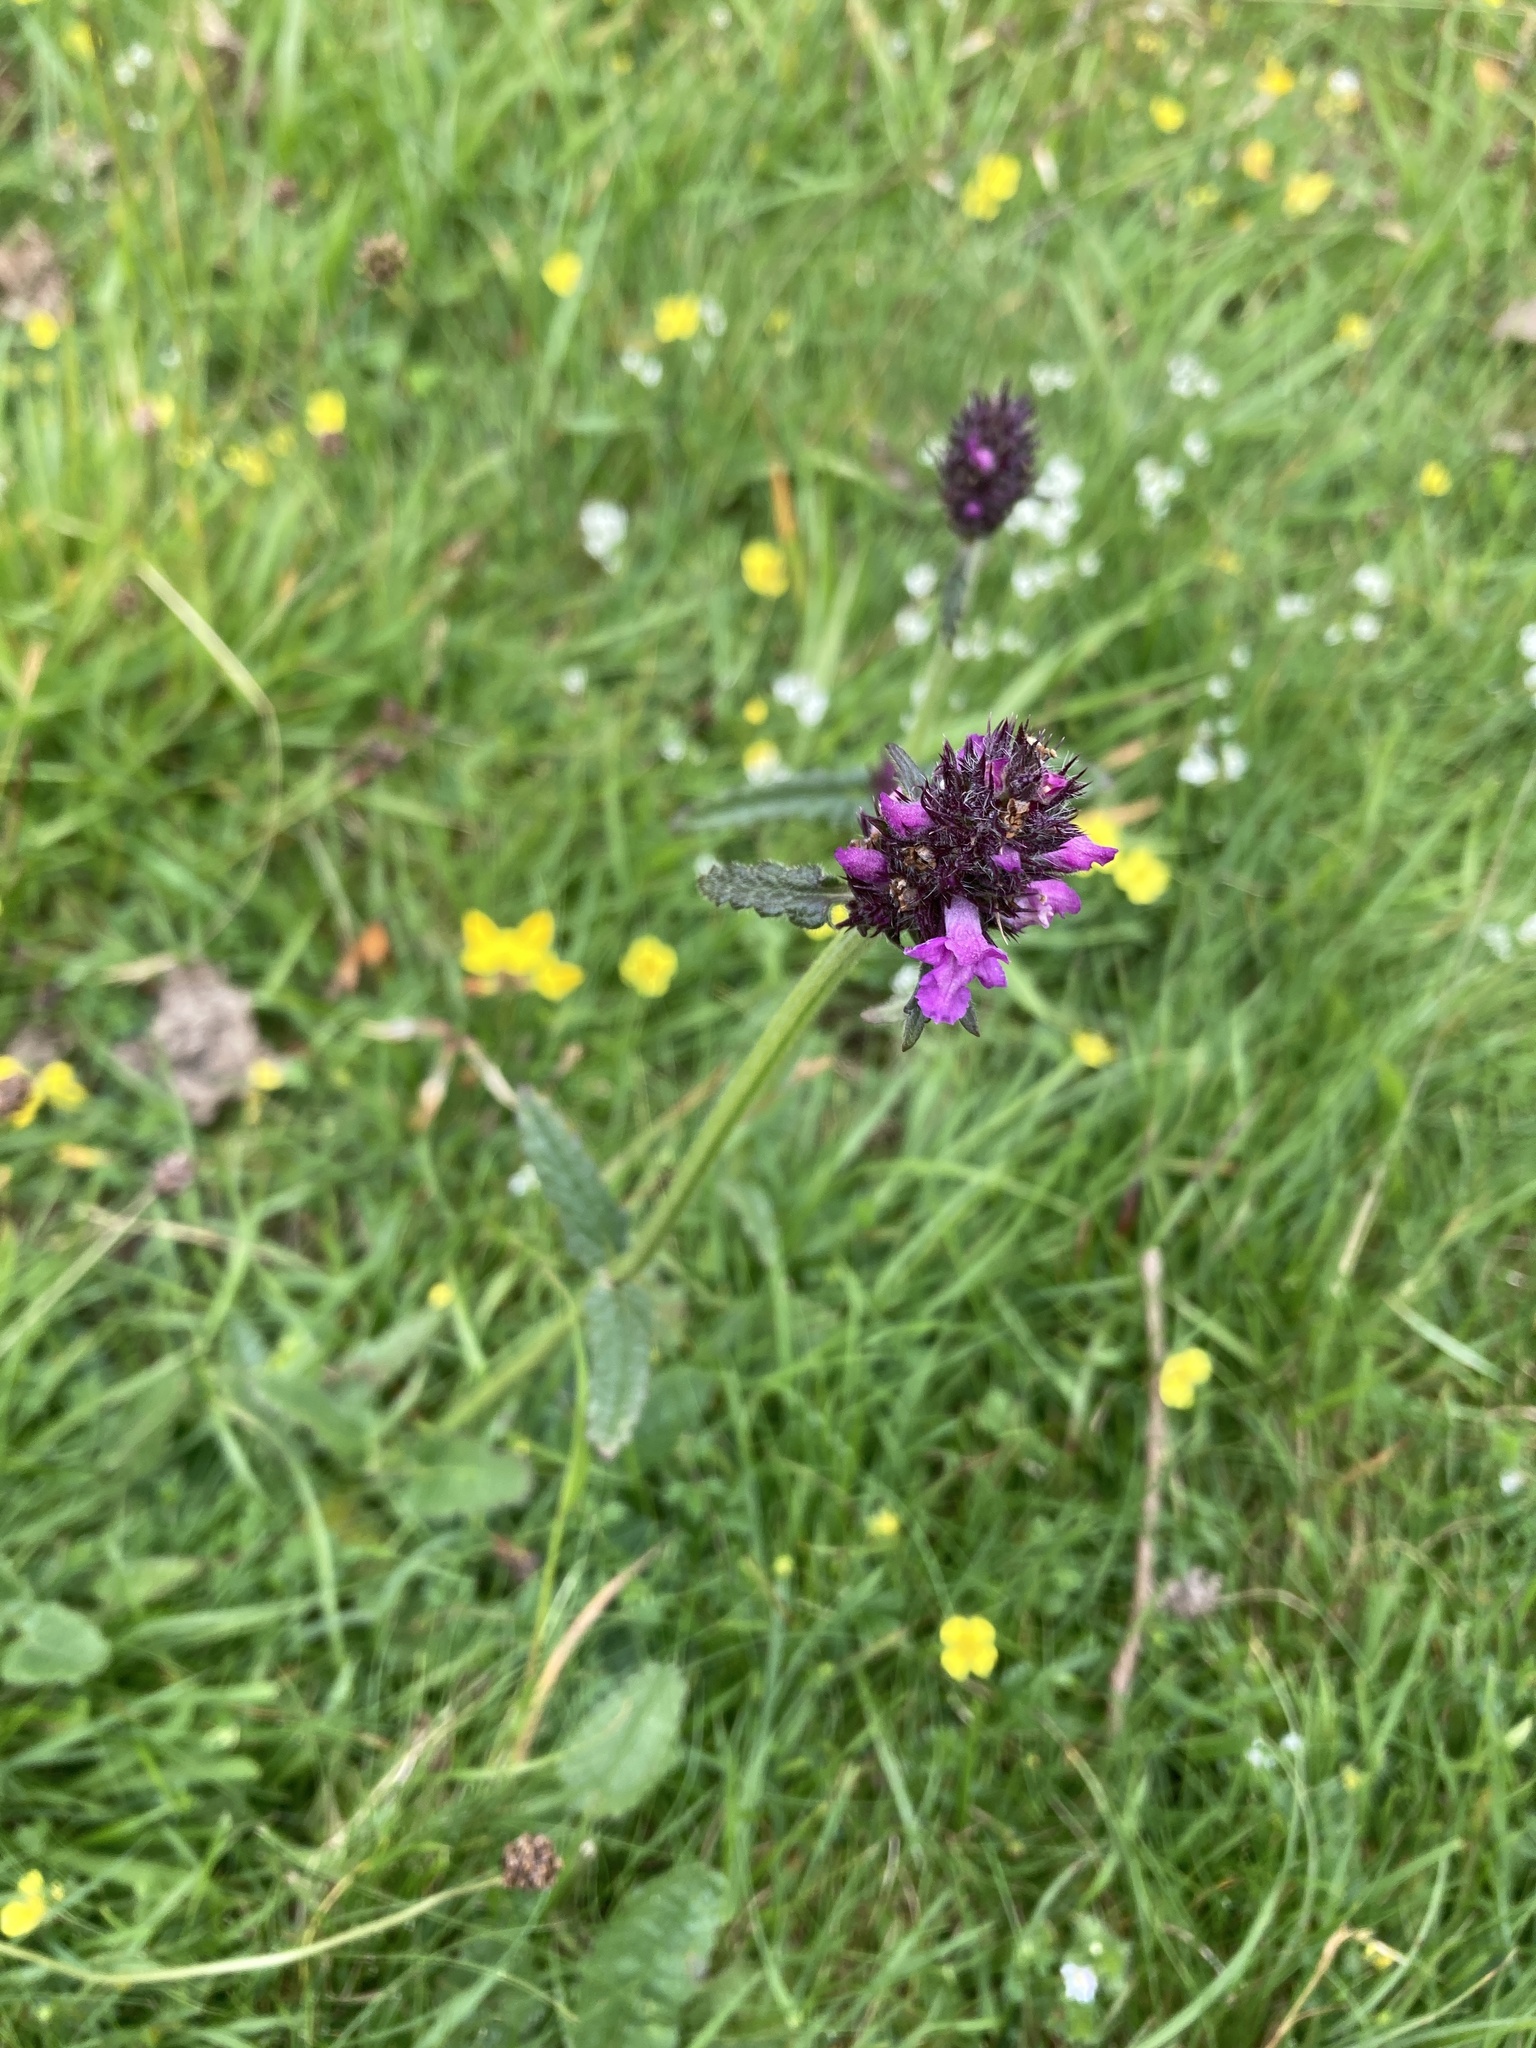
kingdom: Plantae
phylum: Tracheophyta
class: Magnoliopsida
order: Lamiales
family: Lamiaceae
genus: Betonica
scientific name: Betonica officinalis
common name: Bishop's-wort
